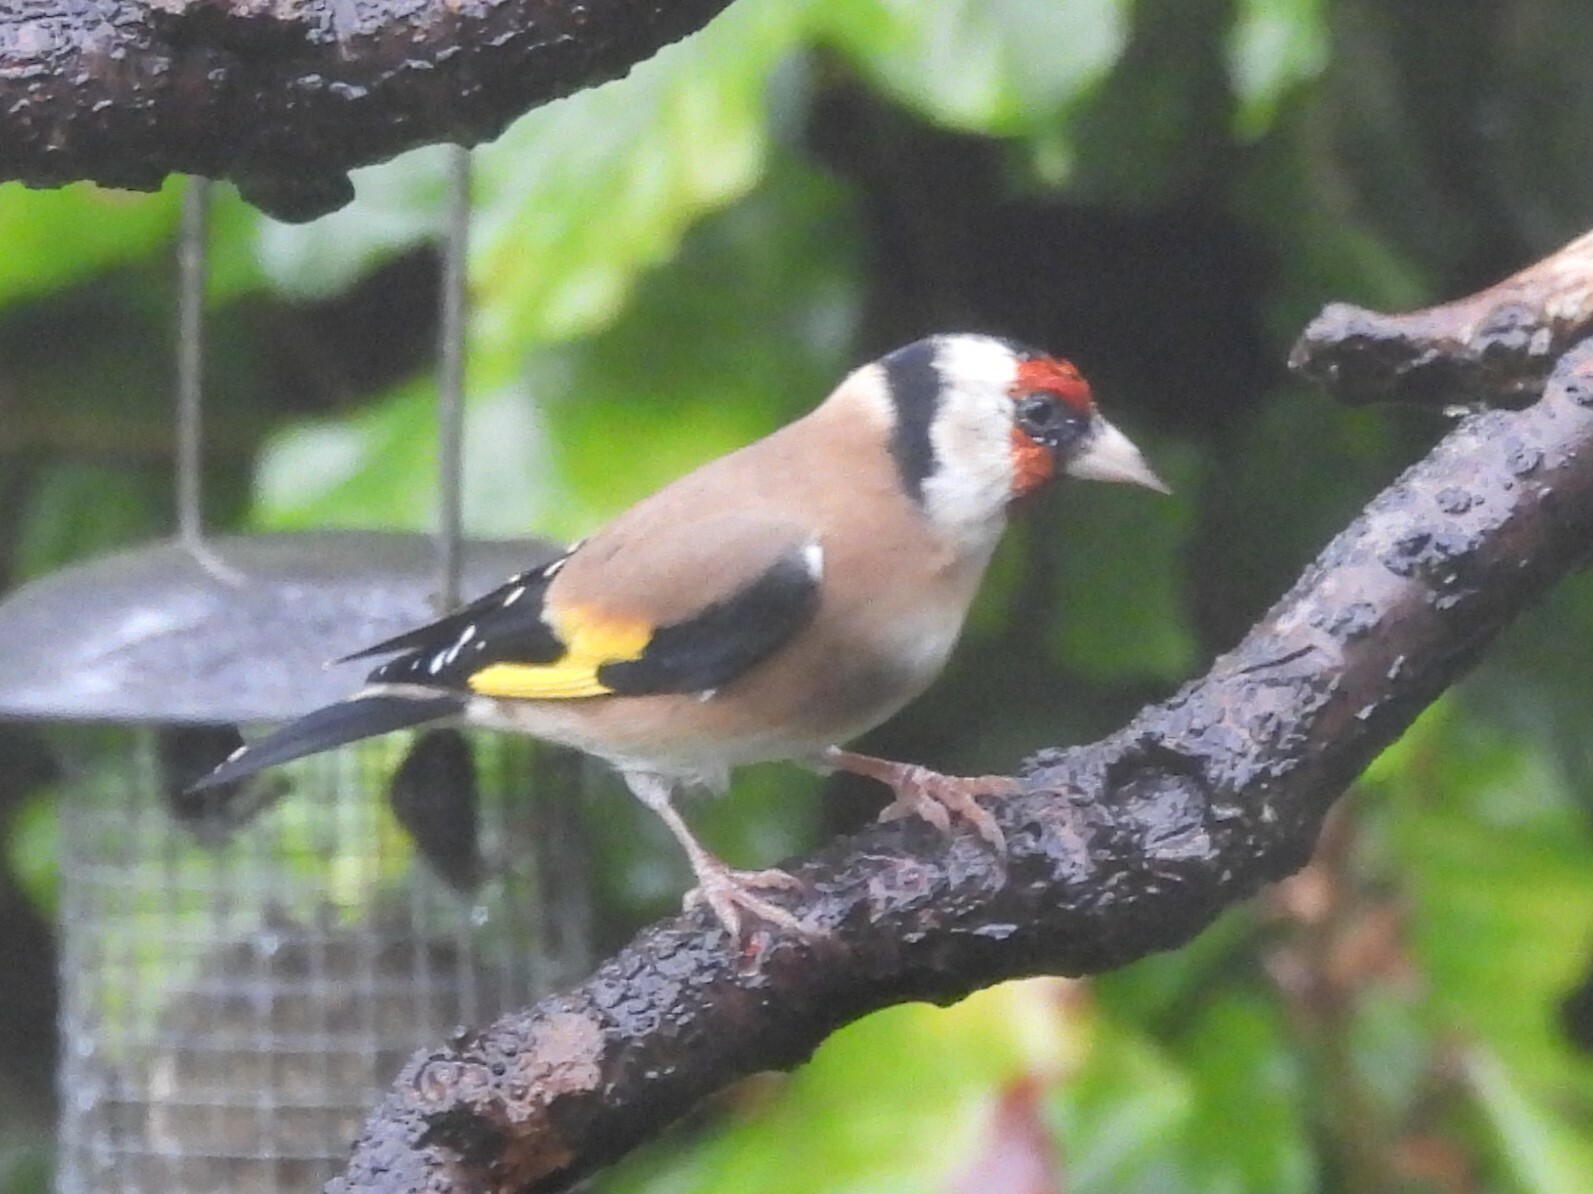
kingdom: Animalia
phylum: Chordata
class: Aves
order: Passeriformes
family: Fringillidae
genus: Carduelis
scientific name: Carduelis carduelis
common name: European goldfinch
